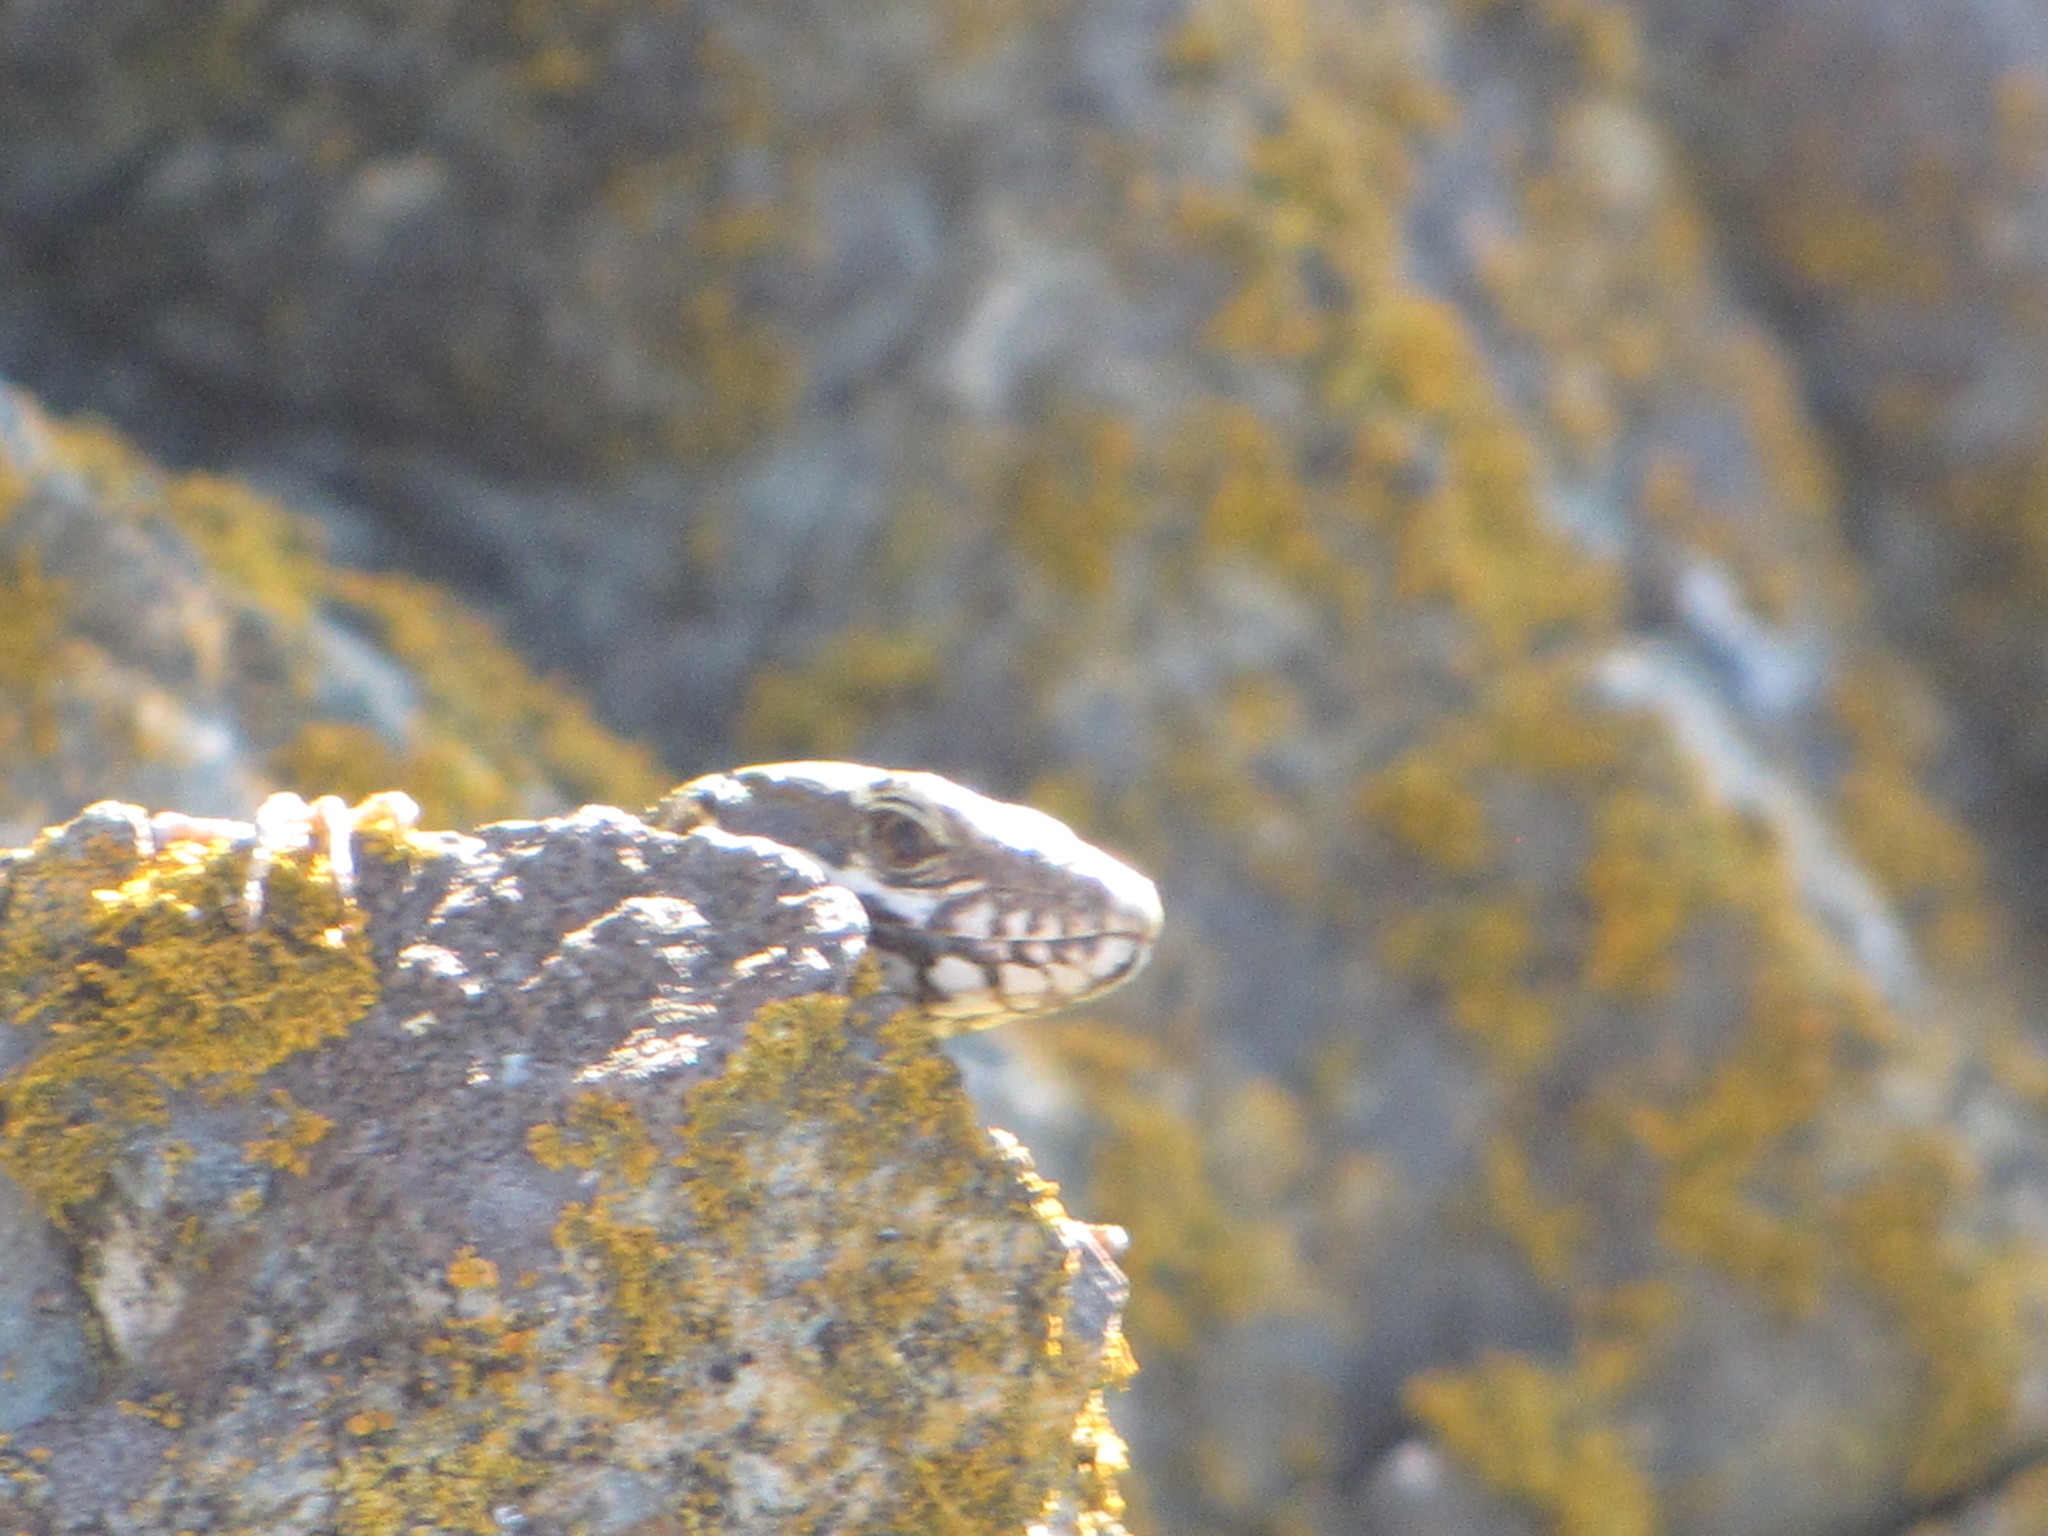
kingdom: Animalia
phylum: Chordata
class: Squamata
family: Lacertidae
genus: Podarcis
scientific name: Podarcis muralis
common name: Common wall lizard
